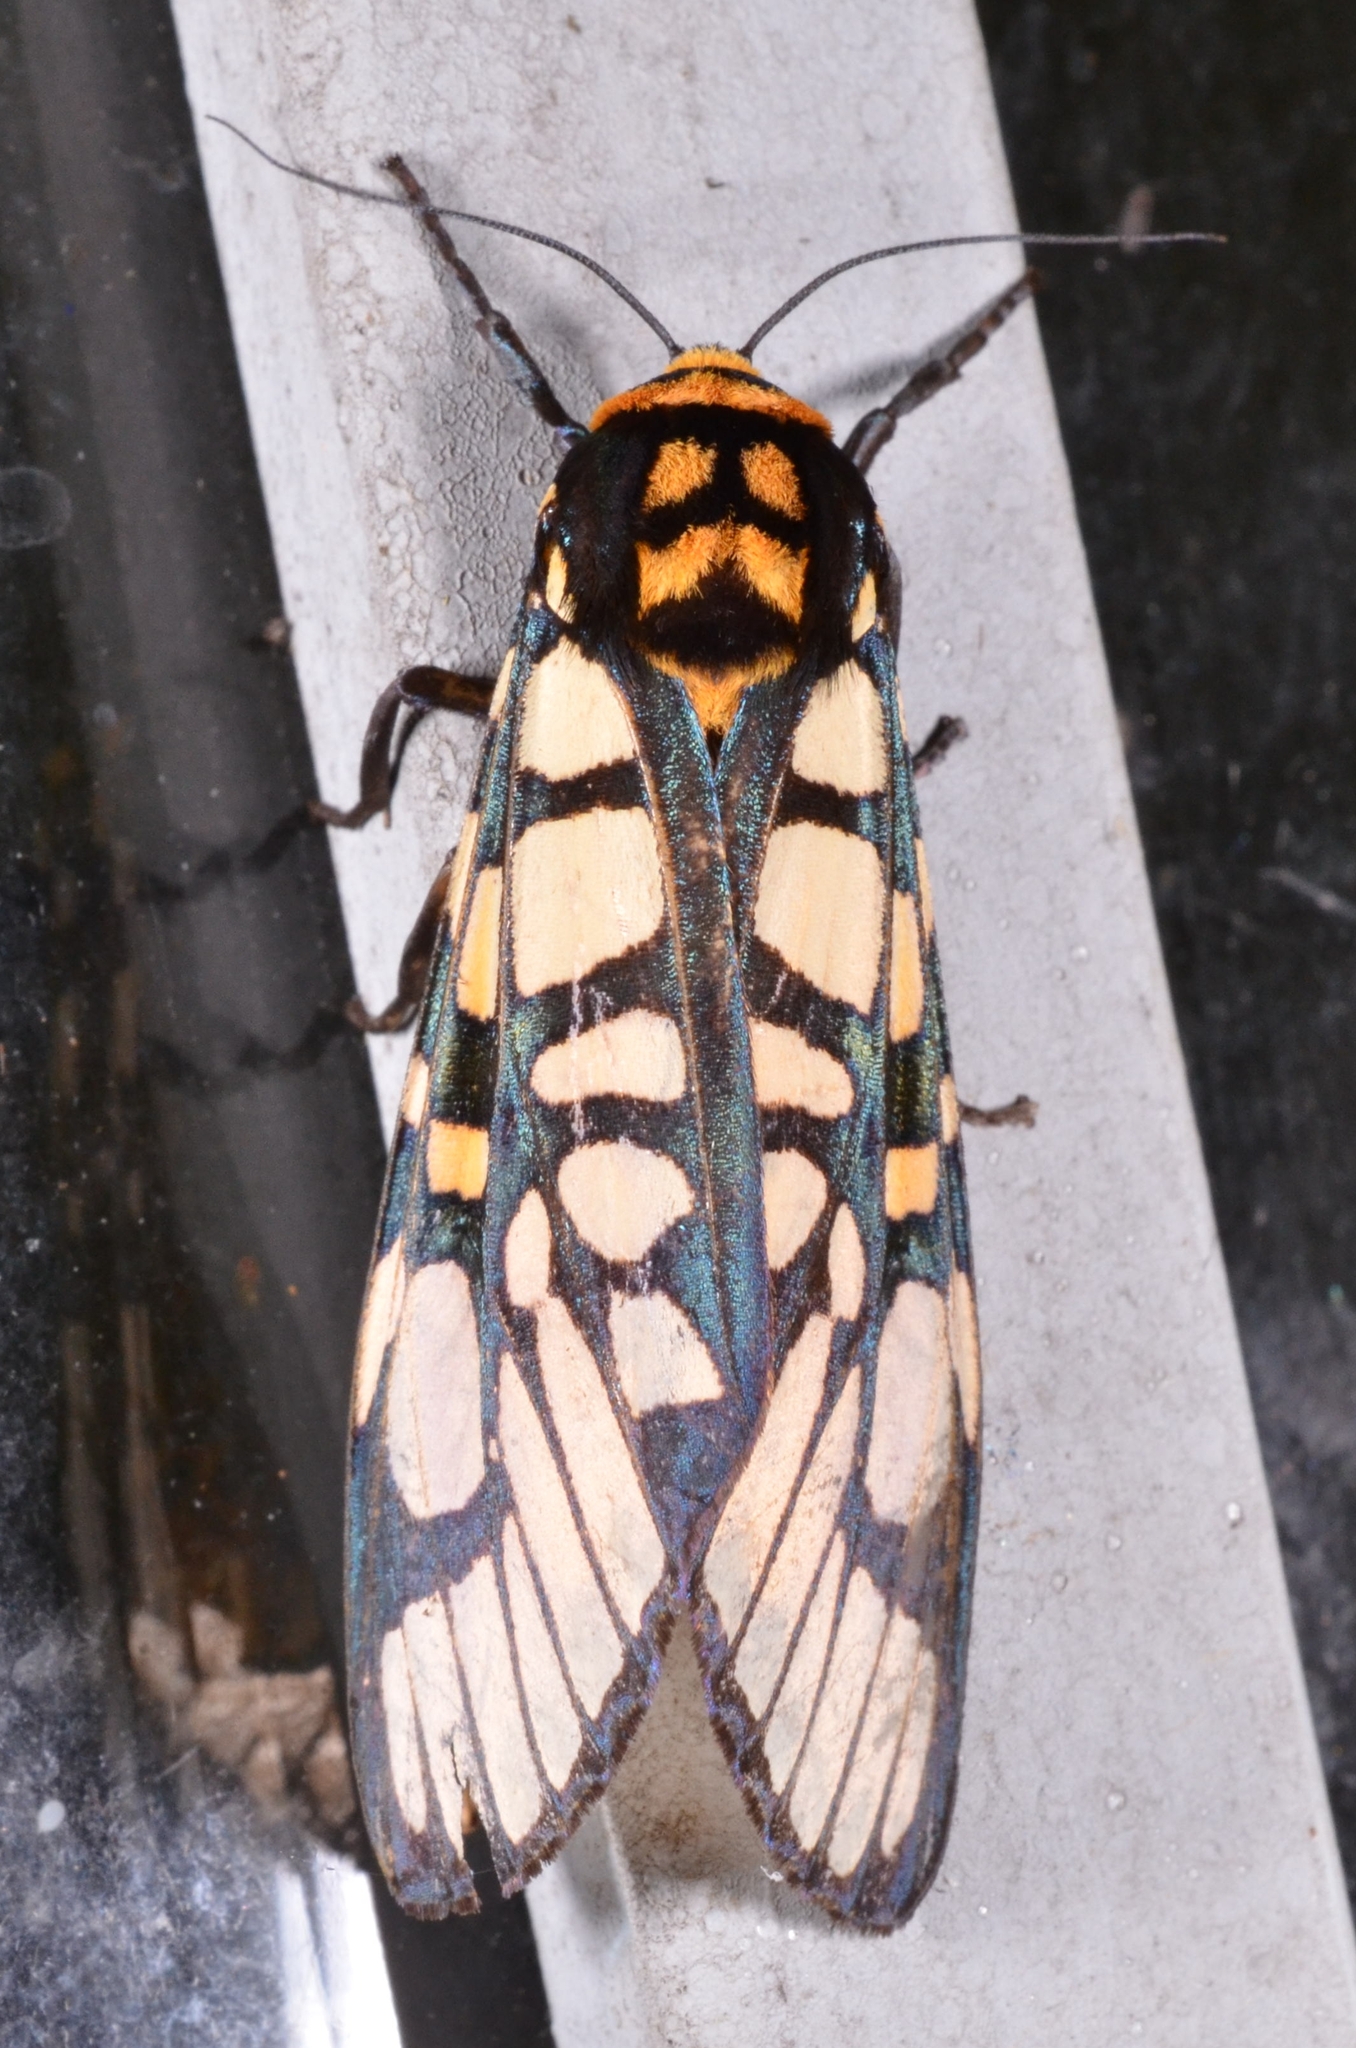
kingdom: Animalia
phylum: Arthropoda
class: Insecta
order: Lepidoptera
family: Erebidae
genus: Aglaomorpha
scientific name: Aglaomorpha plagiata
